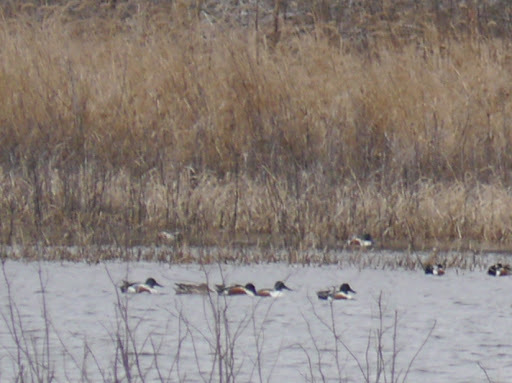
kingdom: Animalia
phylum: Chordata
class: Aves
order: Anseriformes
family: Anatidae
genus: Spatula
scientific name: Spatula clypeata
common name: Northern shoveler
